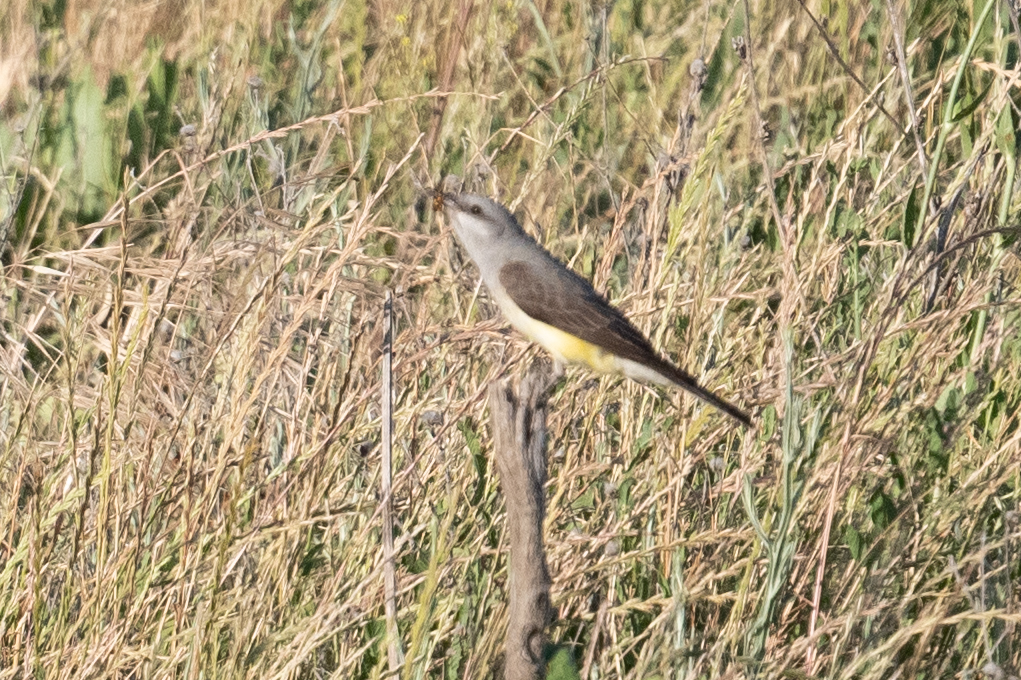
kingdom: Animalia
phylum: Chordata
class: Aves
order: Passeriformes
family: Tyrannidae
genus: Tyrannus
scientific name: Tyrannus verticalis
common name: Western kingbird
